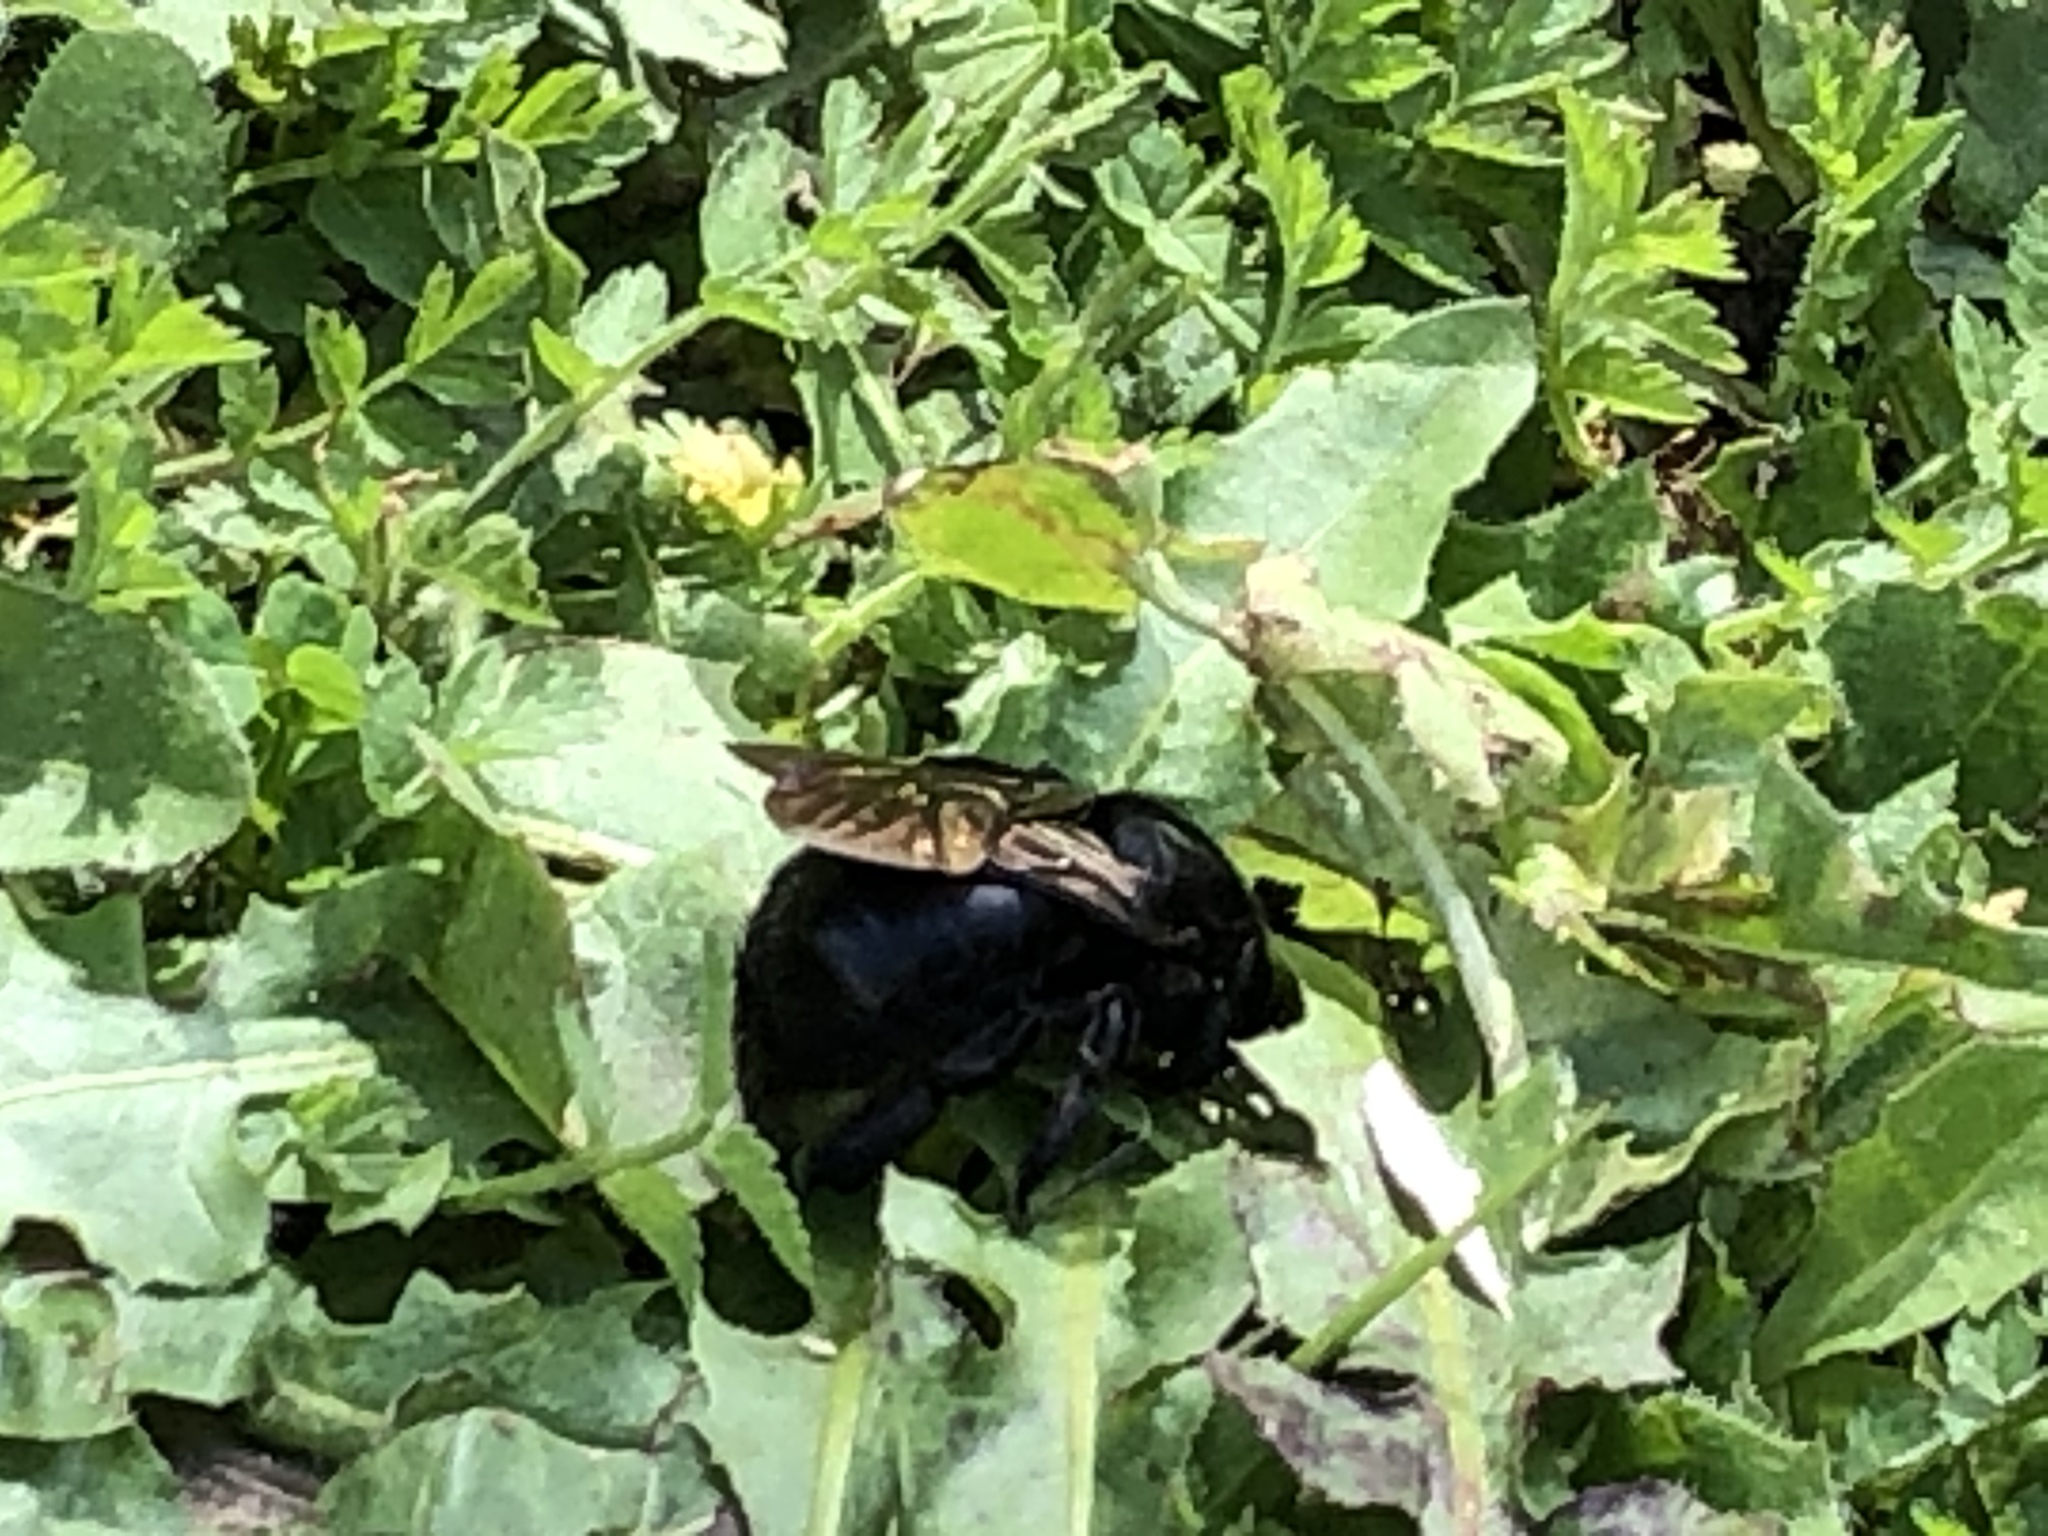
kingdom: Animalia
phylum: Arthropoda
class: Insecta
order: Hymenoptera
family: Apidae
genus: Xylocopa
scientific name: Xylocopa sonorina
